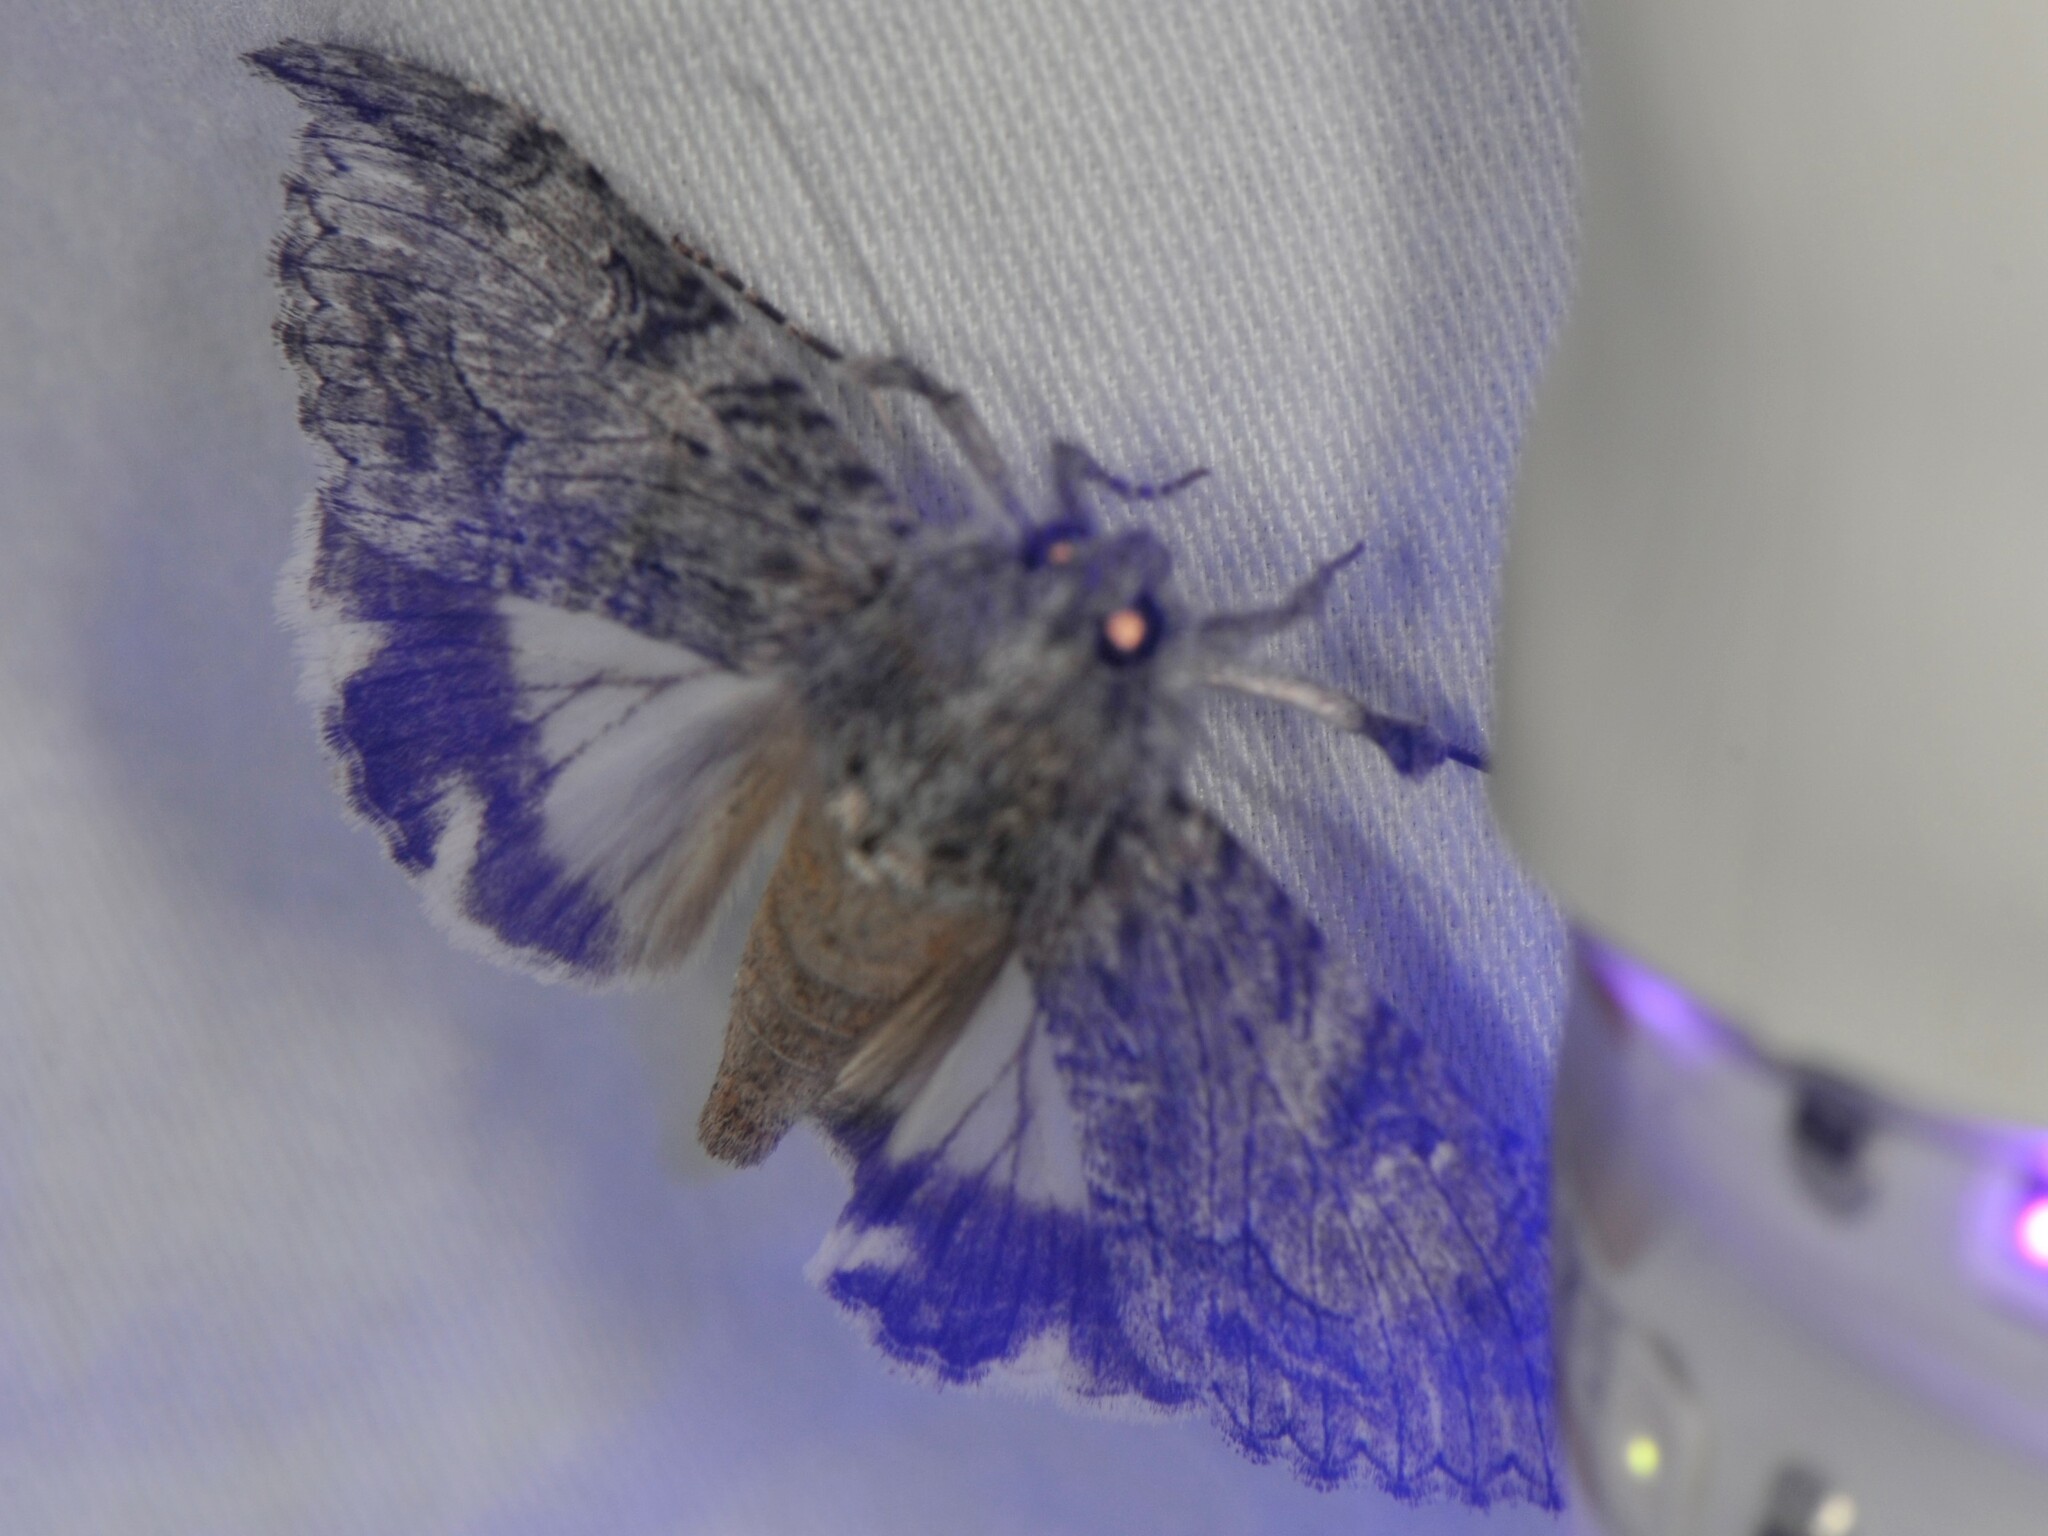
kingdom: Animalia
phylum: Arthropoda
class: Insecta
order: Lepidoptera
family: Erebidae
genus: Melipotis
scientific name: Melipotis jucunda
